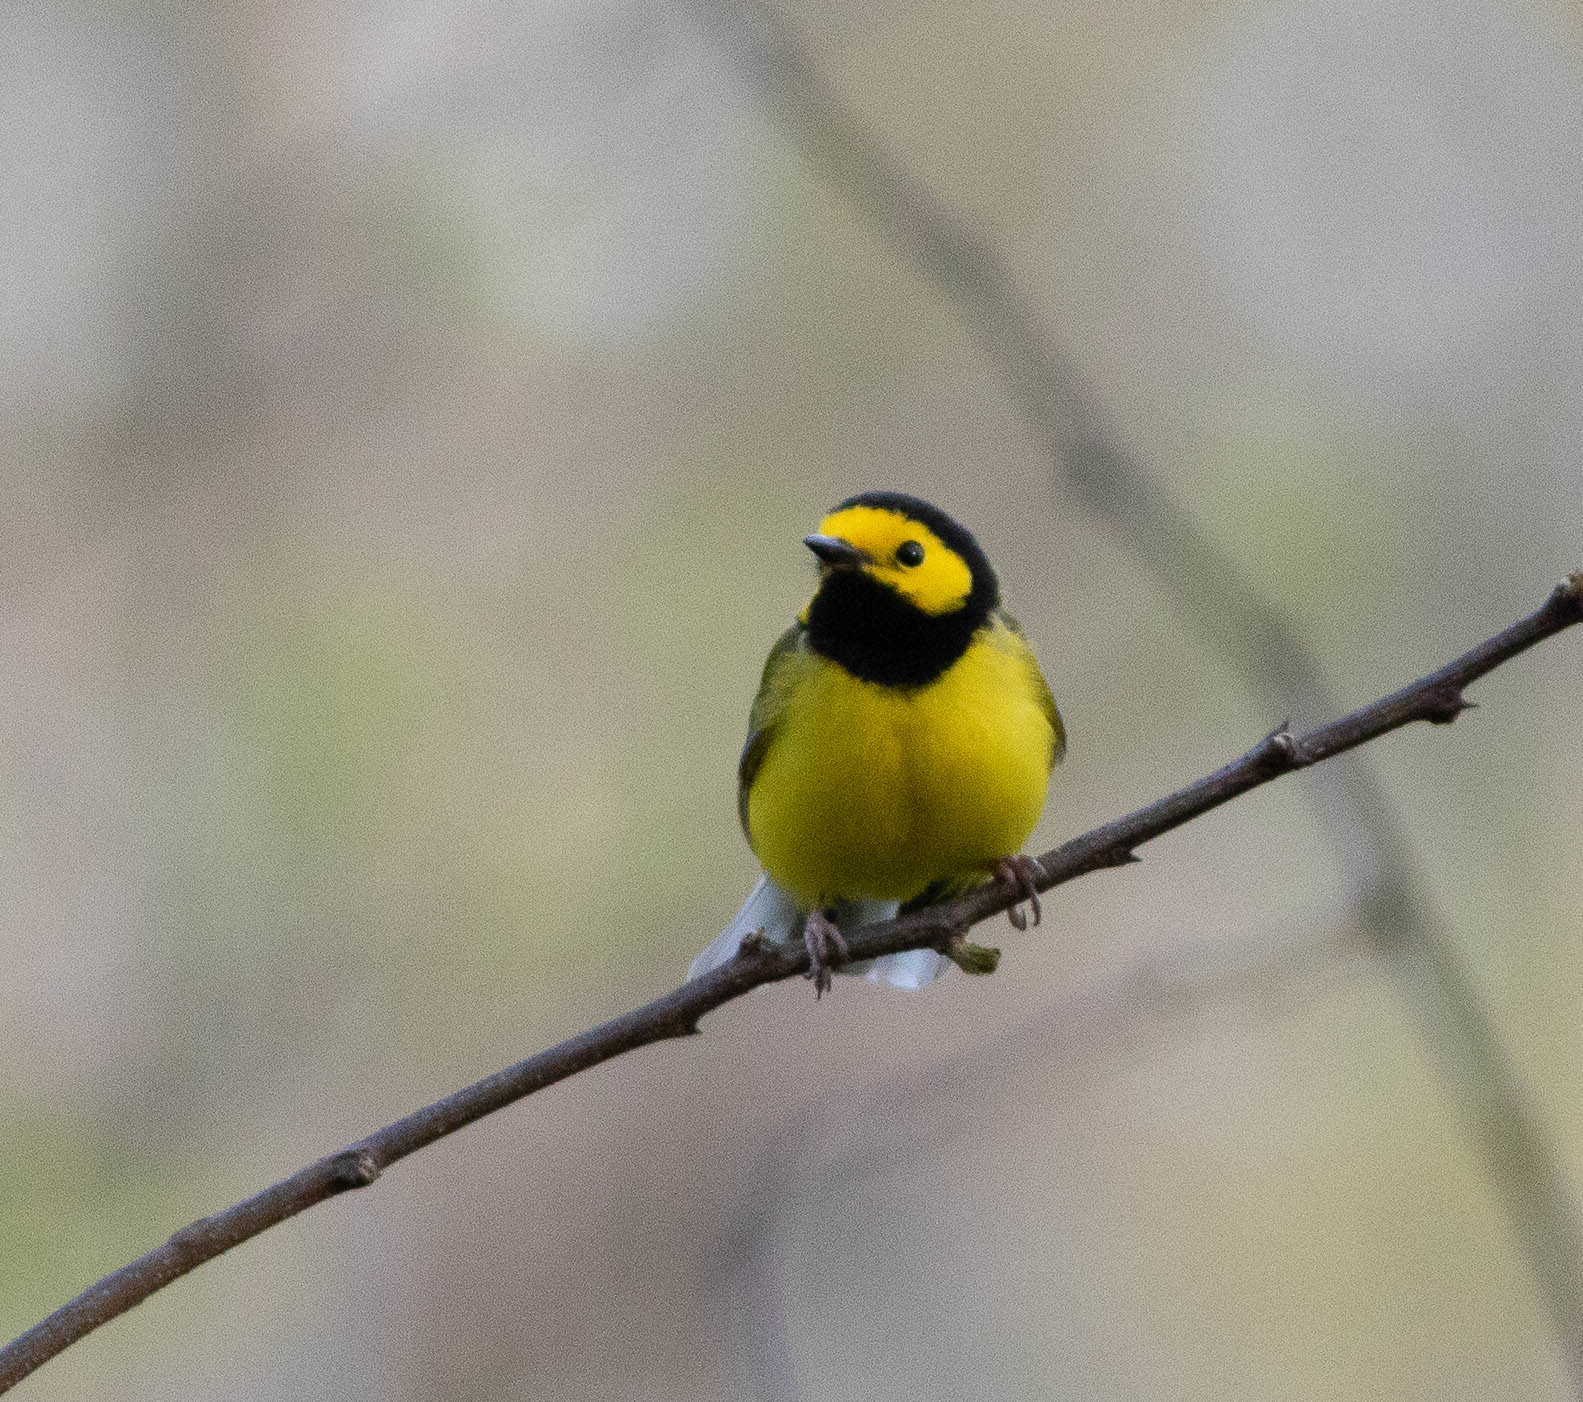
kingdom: Animalia
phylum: Chordata
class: Aves
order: Passeriformes
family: Parulidae
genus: Setophaga
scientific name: Setophaga citrina
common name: Hooded warbler
